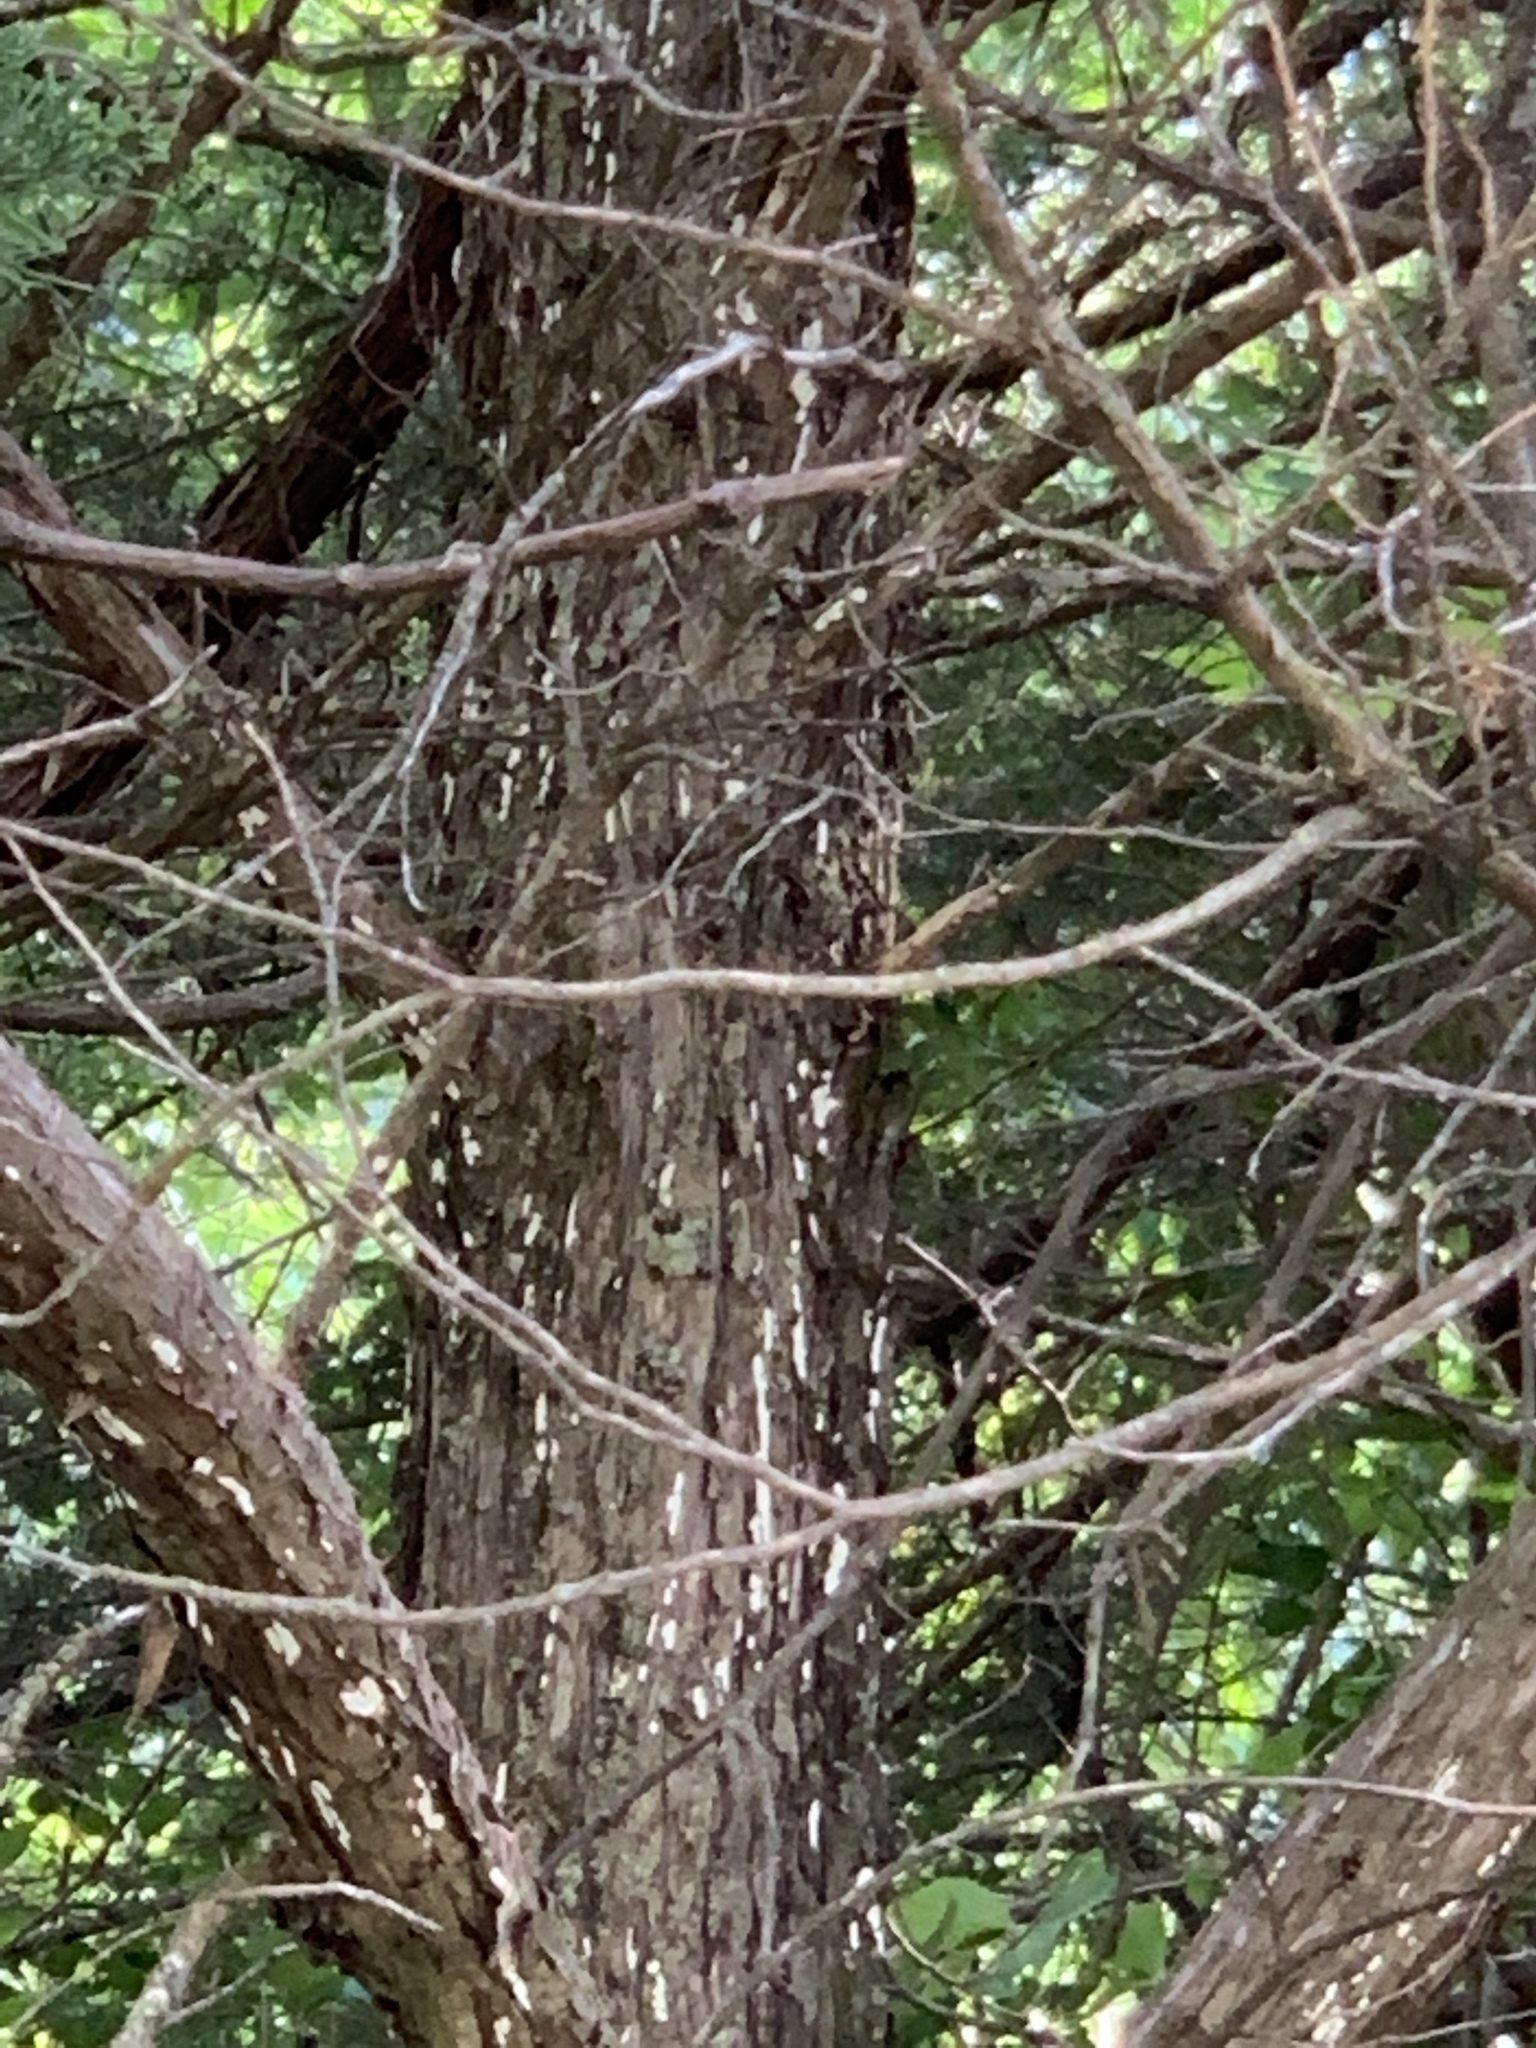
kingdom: Plantae
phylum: Tracheophyta
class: Pinopsida
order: Pinales
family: Cupressaceae
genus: Juniperus
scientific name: Juniperus virginiana
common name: Red juniper
